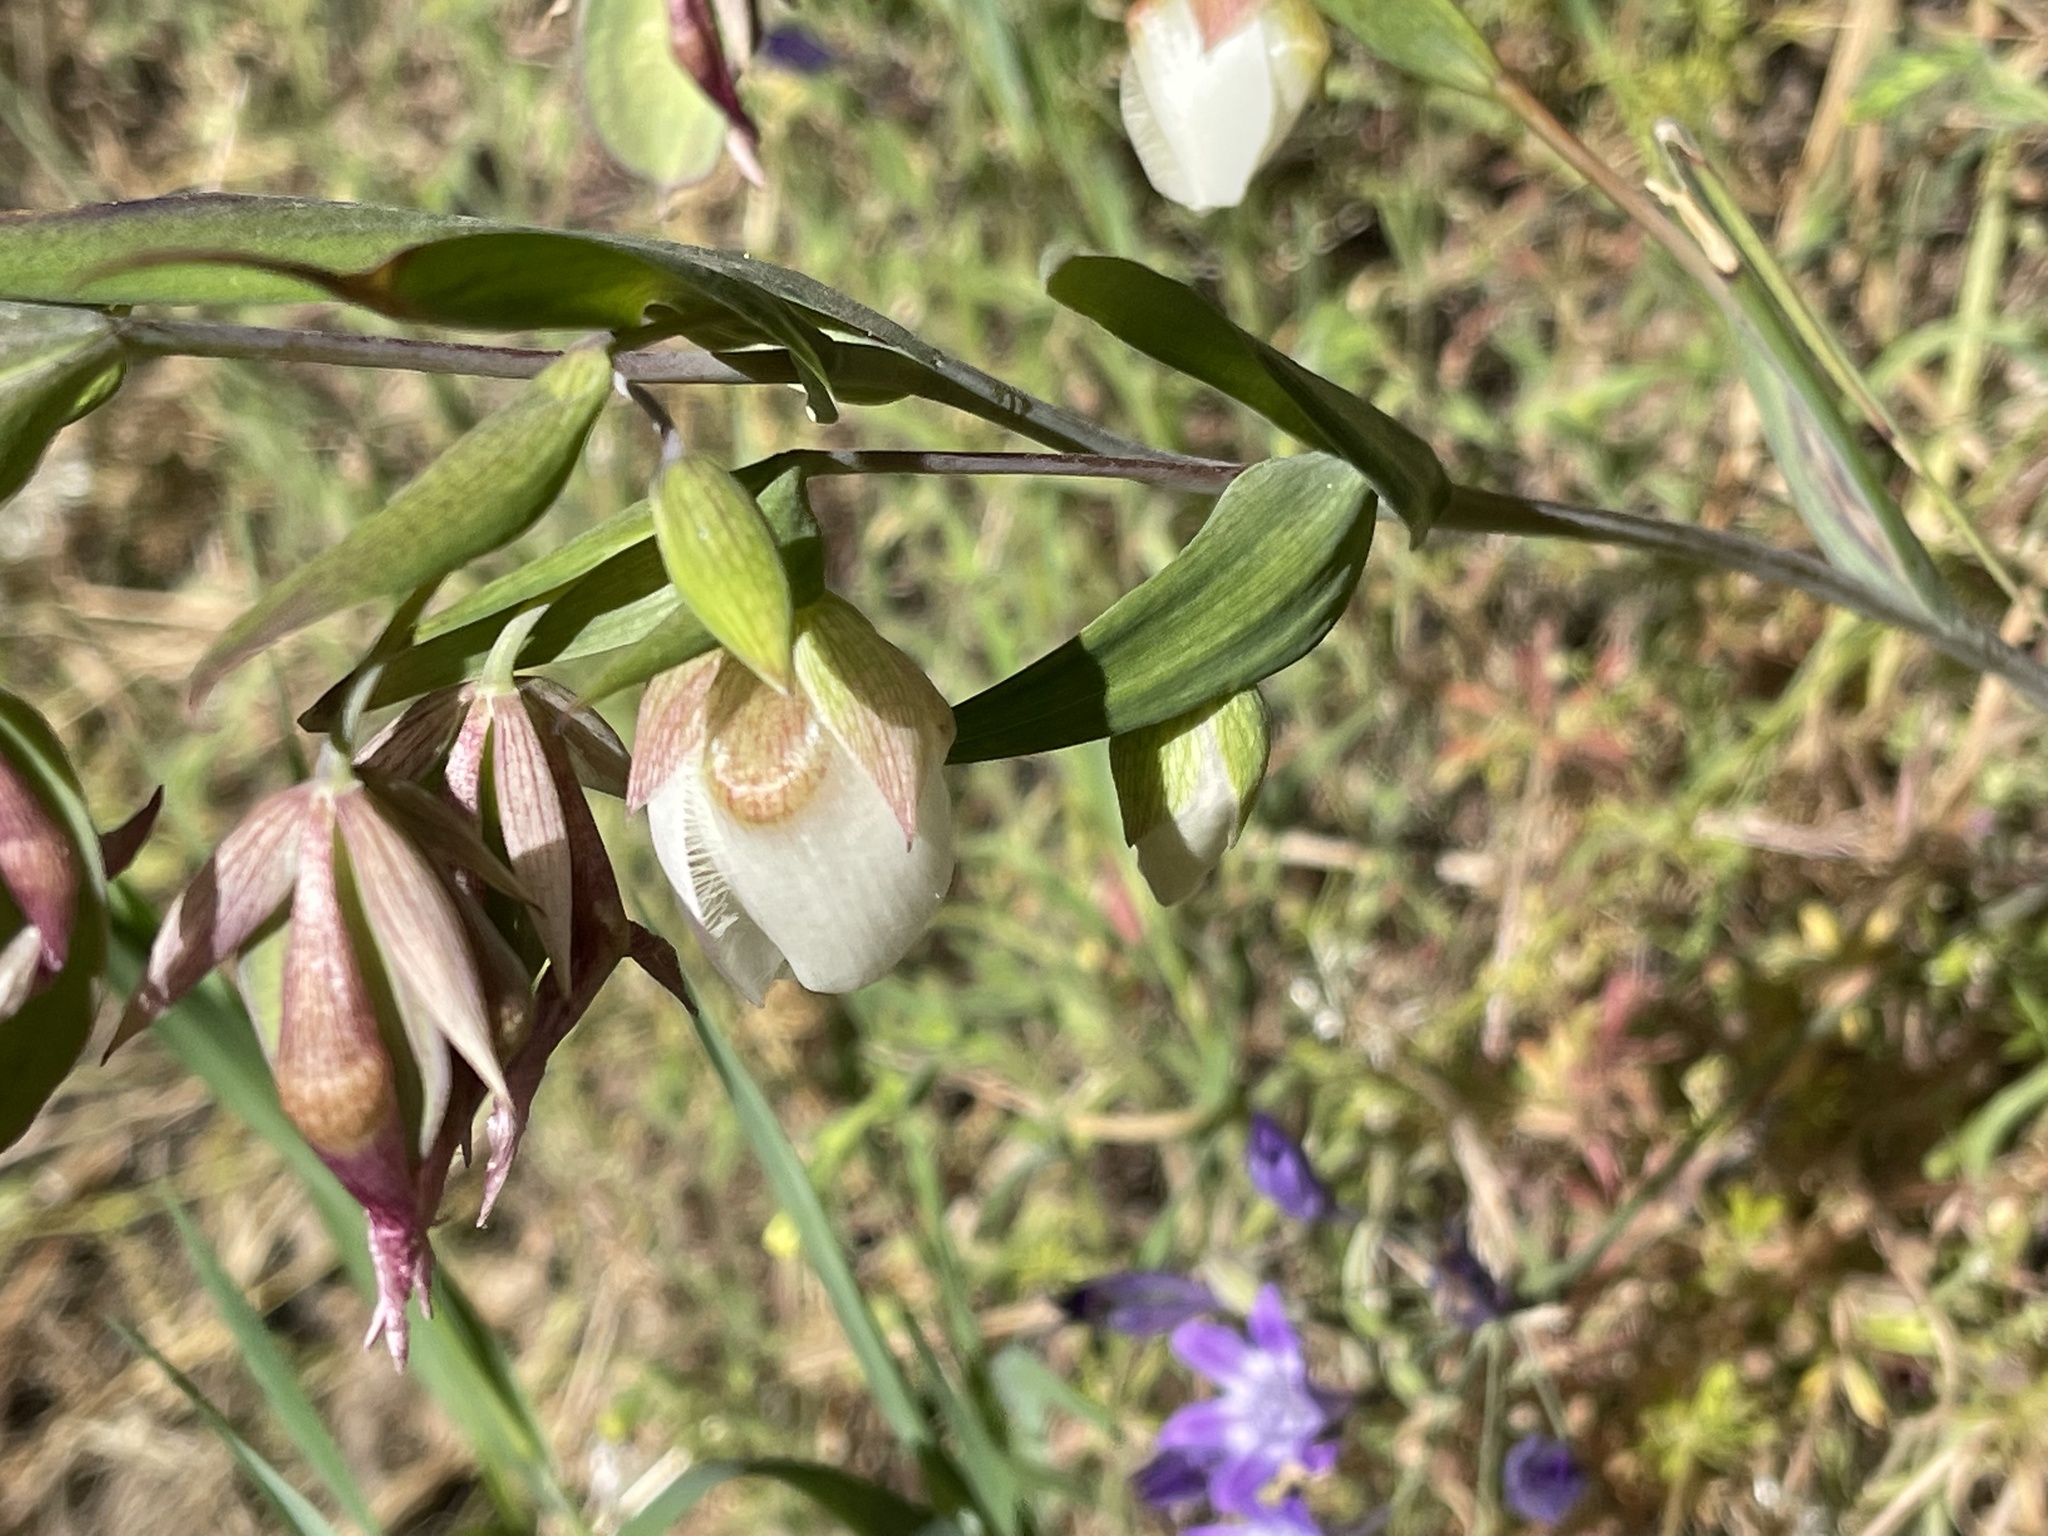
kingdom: Plantae
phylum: Tracheophyta
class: Liliopsida
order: Liliales
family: Liliaceae
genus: Calochortus
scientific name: Calochortus albus
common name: Fairy-lantern
